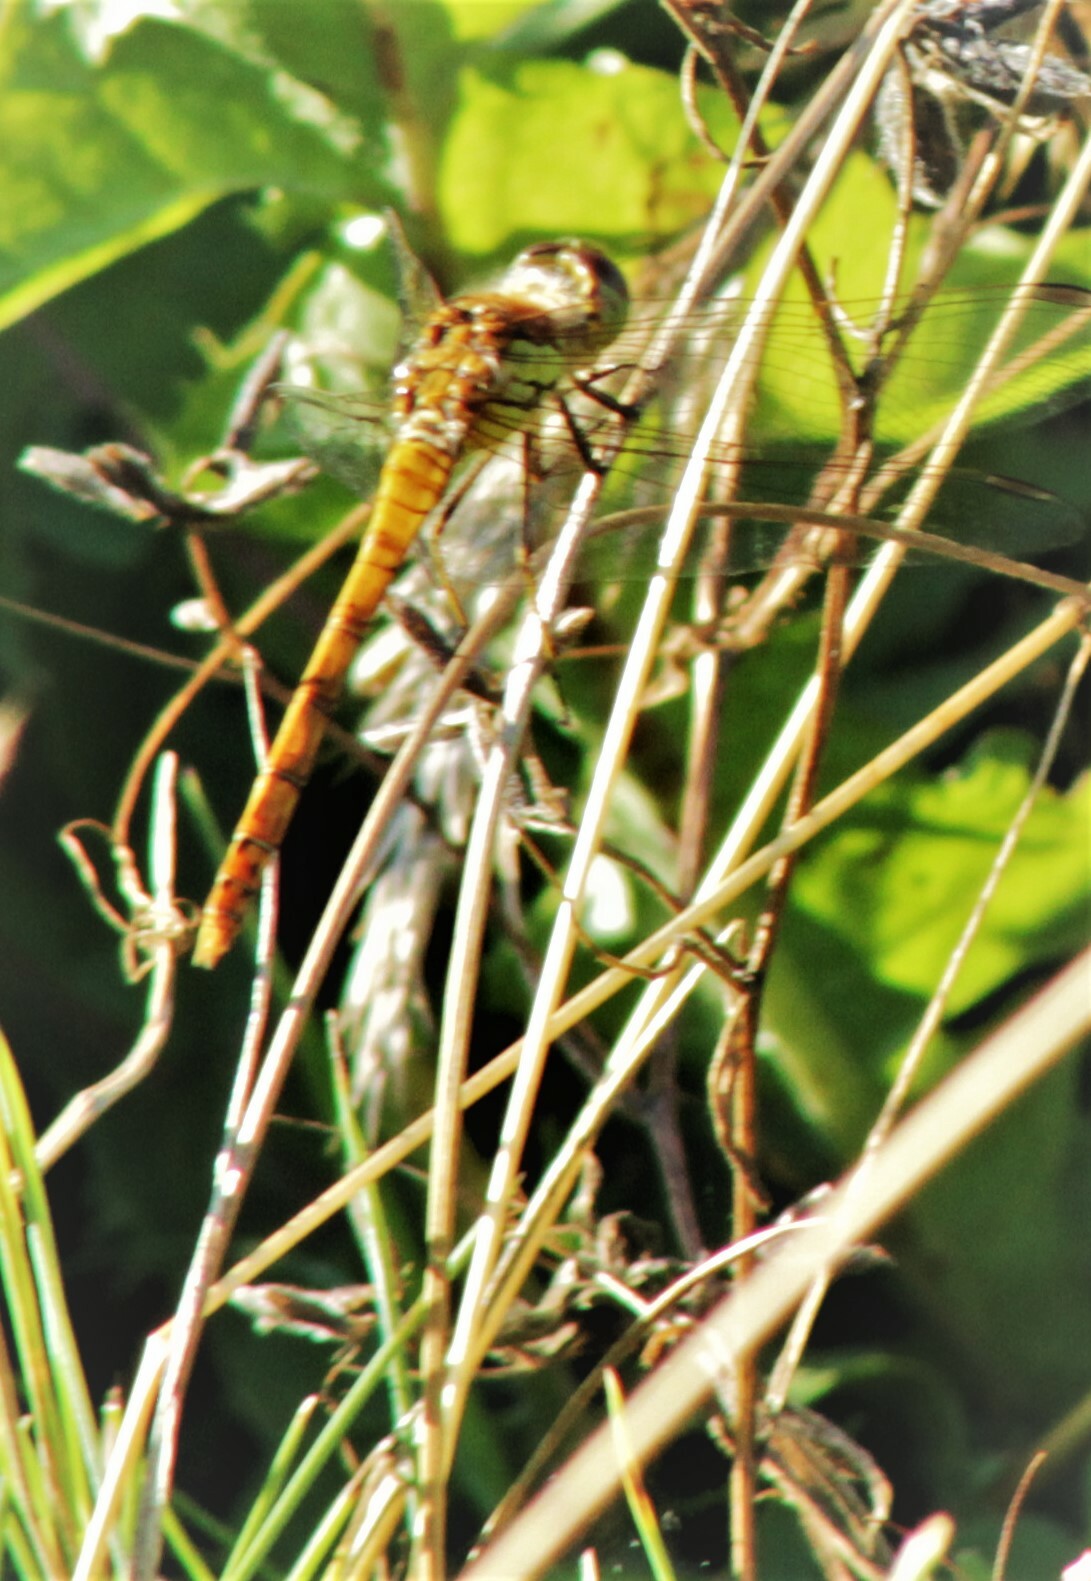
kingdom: Animalia
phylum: Arthropoda
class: Insecta
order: Odonata
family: Libellulidae
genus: Sympetrum
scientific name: Sympetrum striolatum
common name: Common darter
